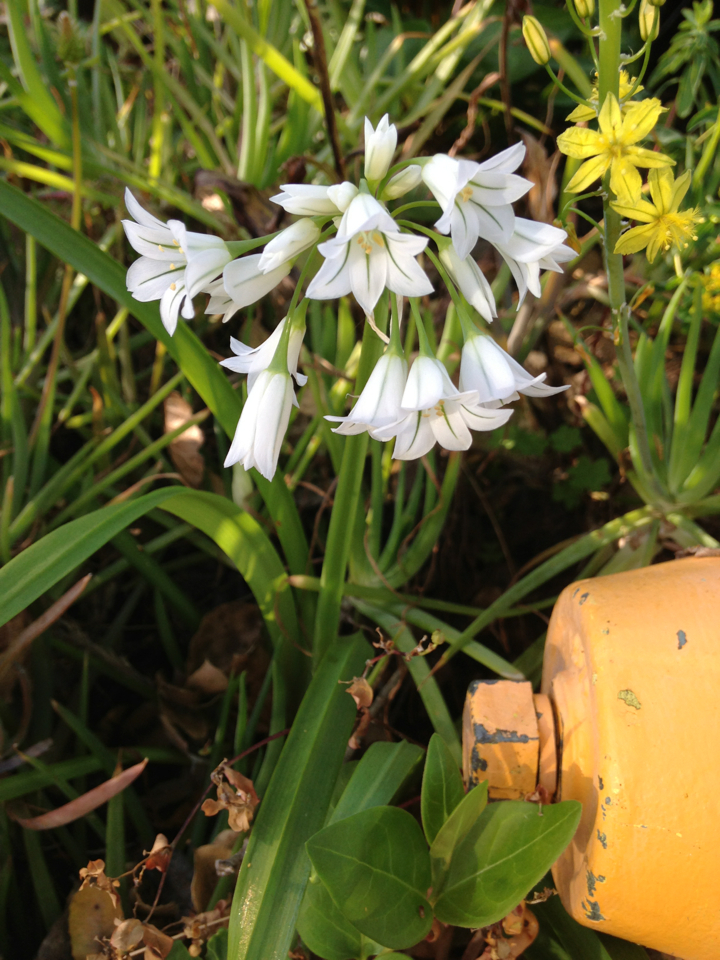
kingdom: Plantae
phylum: Tracheophyta
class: Liliopsida
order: Asparagales
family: Amaryllidaceae
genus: Allium
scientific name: Allium triquetrum
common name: Three-cornered garlic
